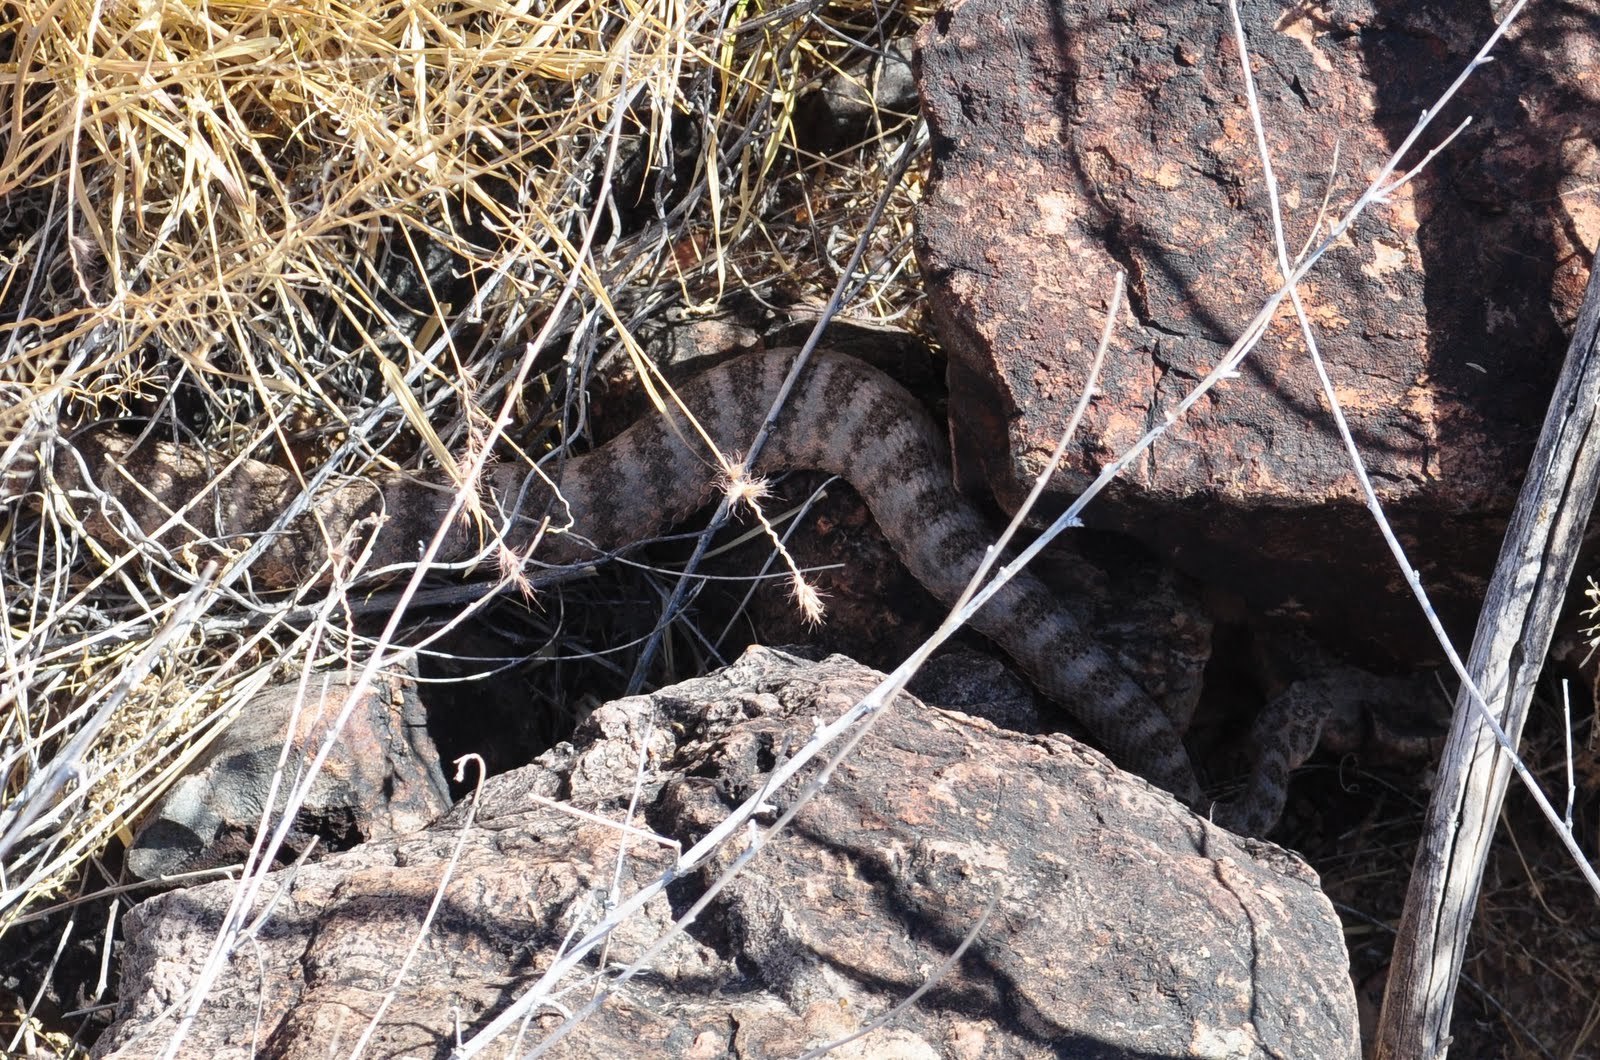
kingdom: Animalia
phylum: Chordata
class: Squamata
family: Viperidae
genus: Crotalus
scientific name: Crotalus tigris
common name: Tiger rattlesnake
